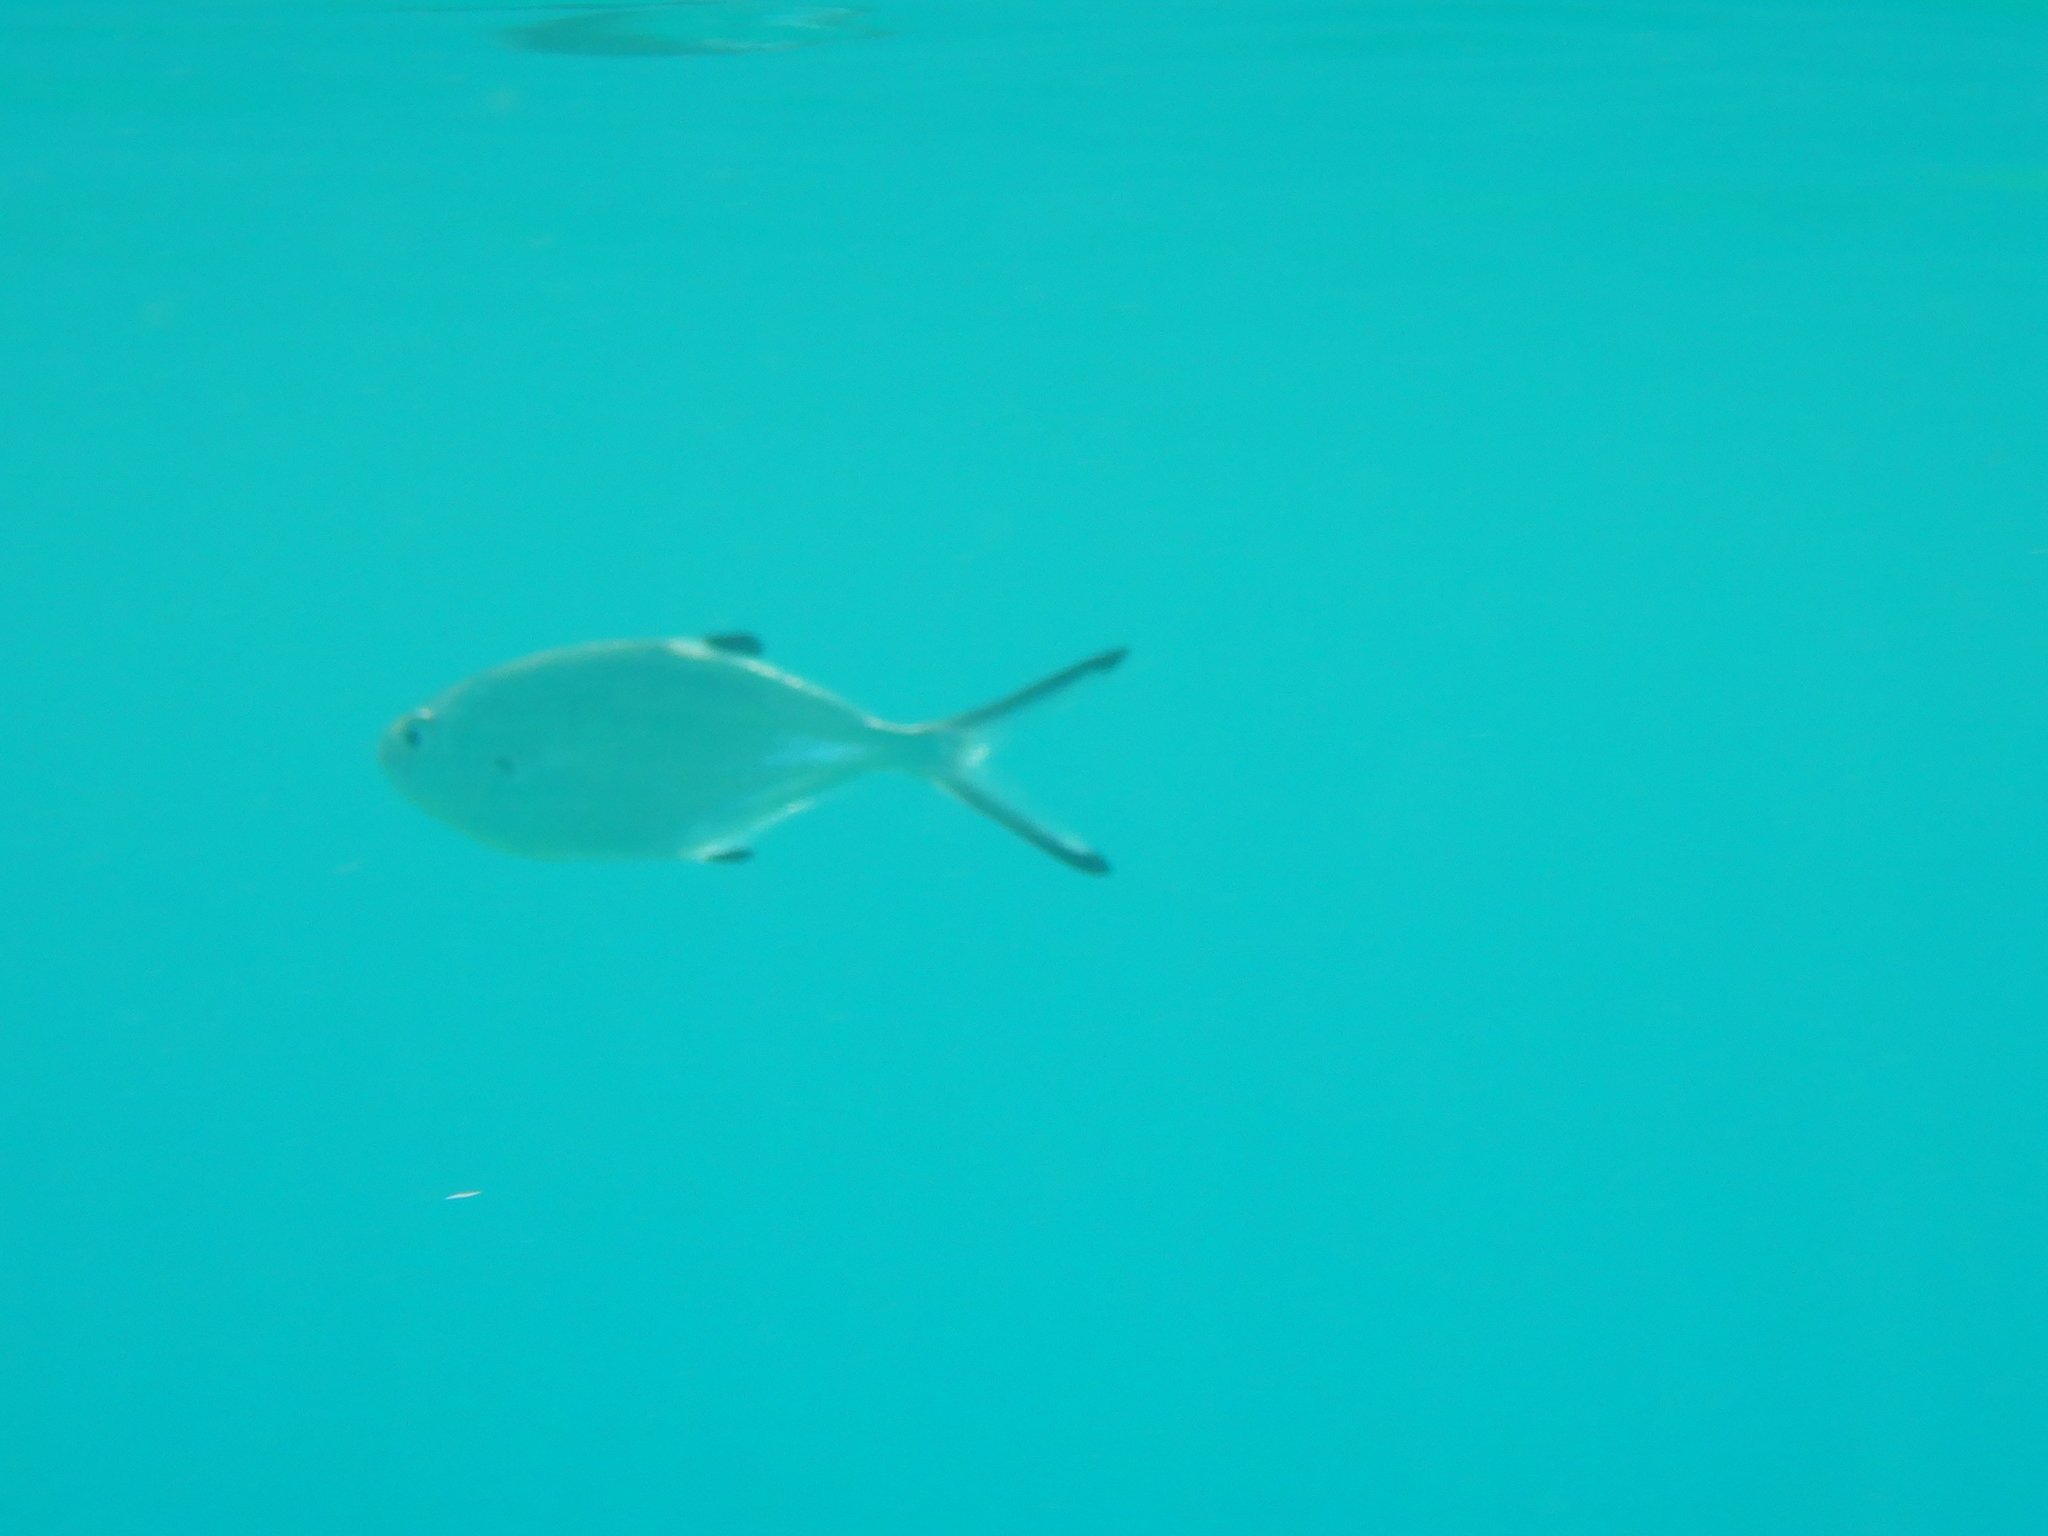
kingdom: Animalia
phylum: Chordata
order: Perciformes
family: Carangidae
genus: Trachinotus
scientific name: Trachinotus ovatus
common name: Pompano
